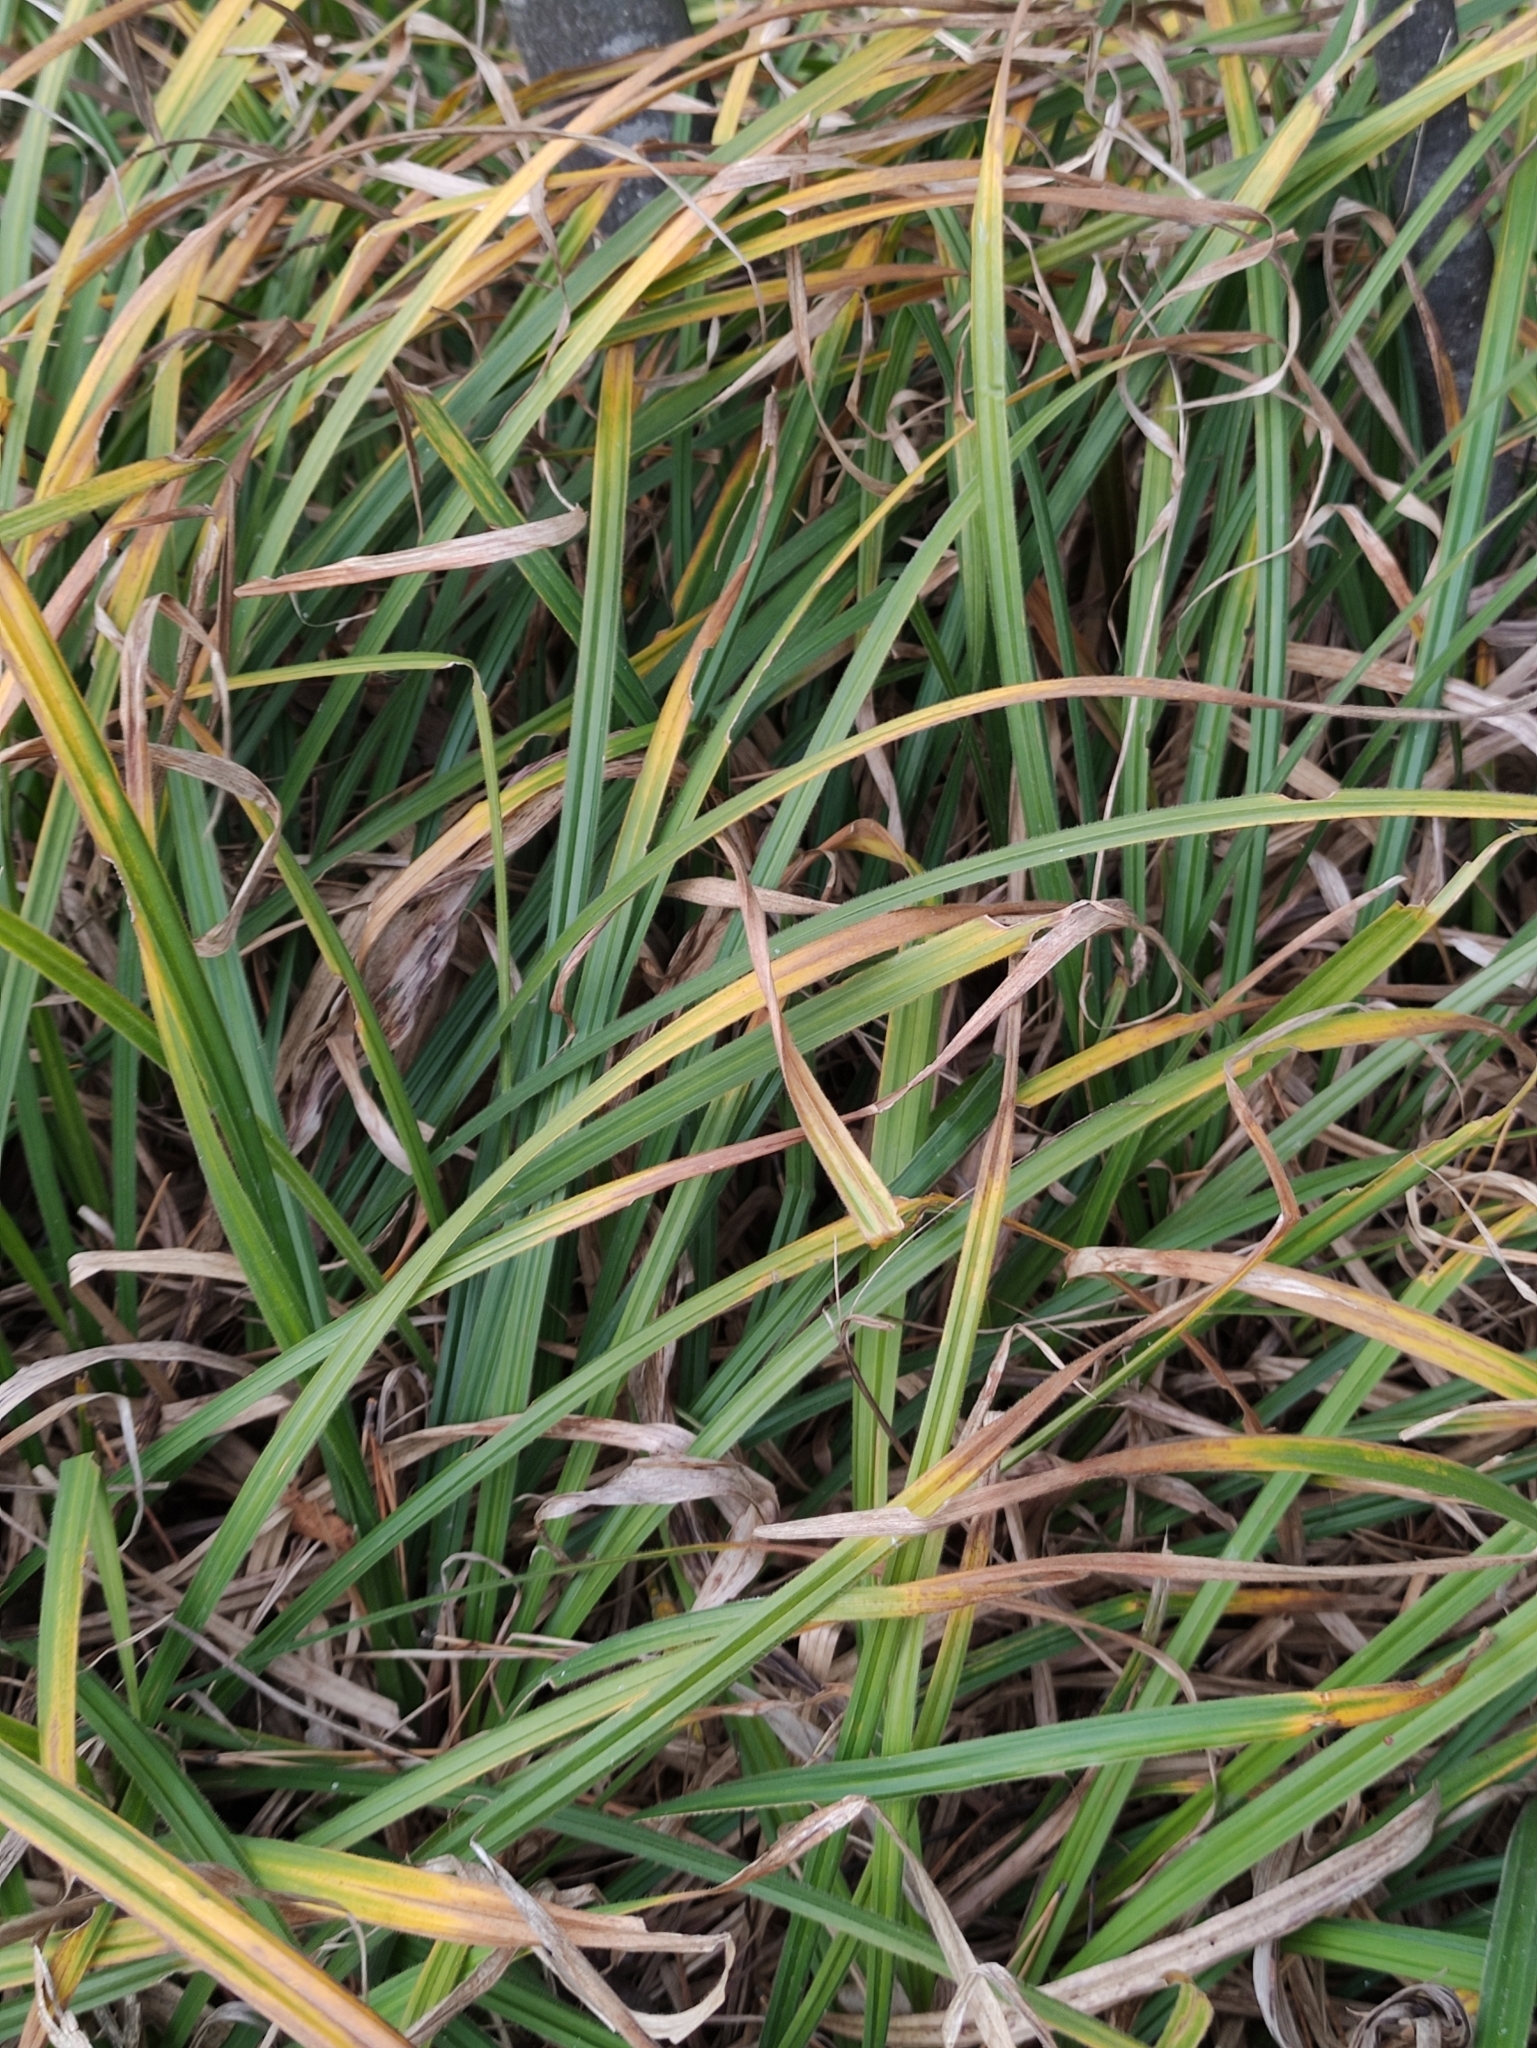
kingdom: Plantae
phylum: Tracheophyta
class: Liliopsida
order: Poales
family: Cyperaceae
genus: Carex
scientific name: Carex pilosa
